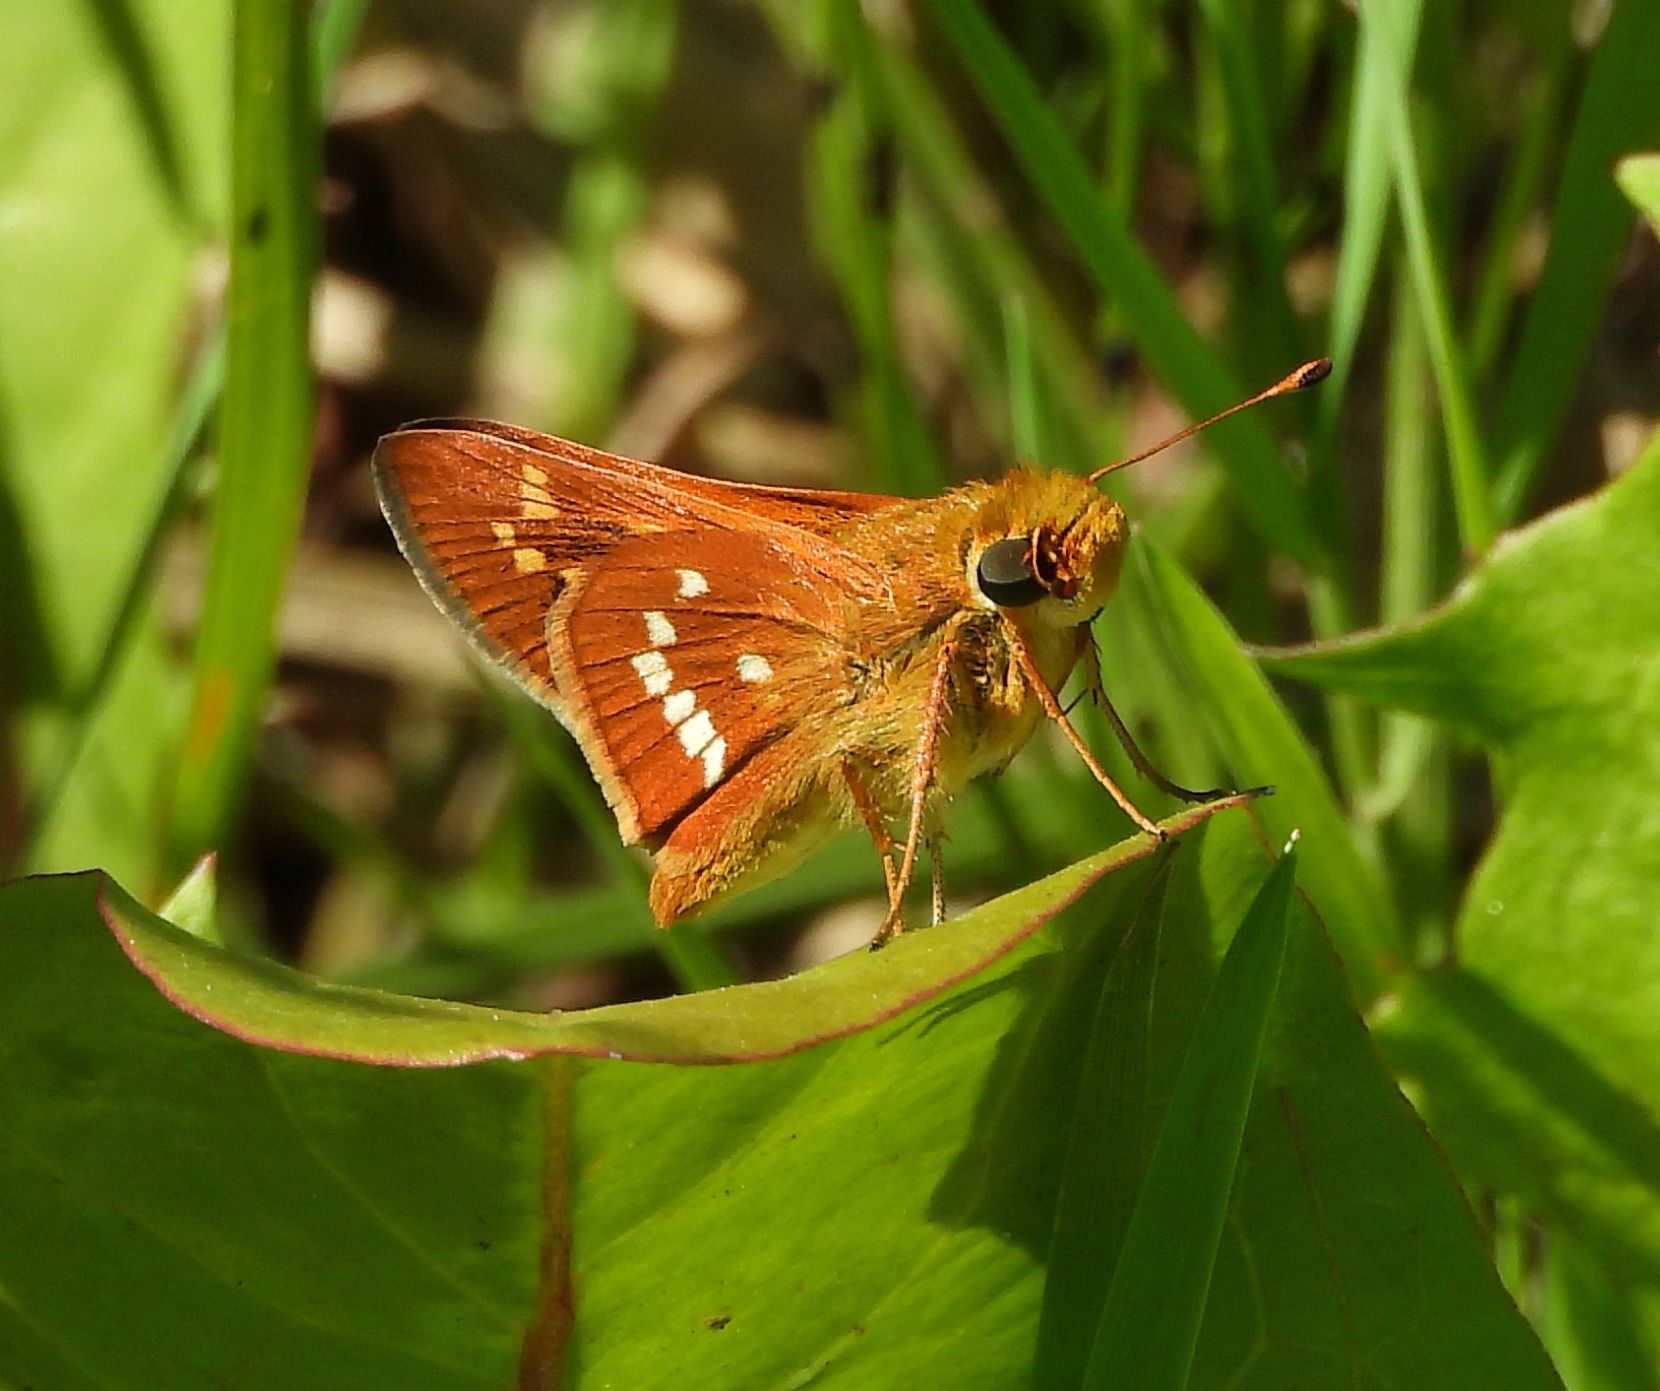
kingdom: Animalia
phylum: Arthropoda
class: Insecta
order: Lepidoptera
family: Hesperiidae
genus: Hesperia
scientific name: Hesperia leonardus
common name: Leonard's skipper
